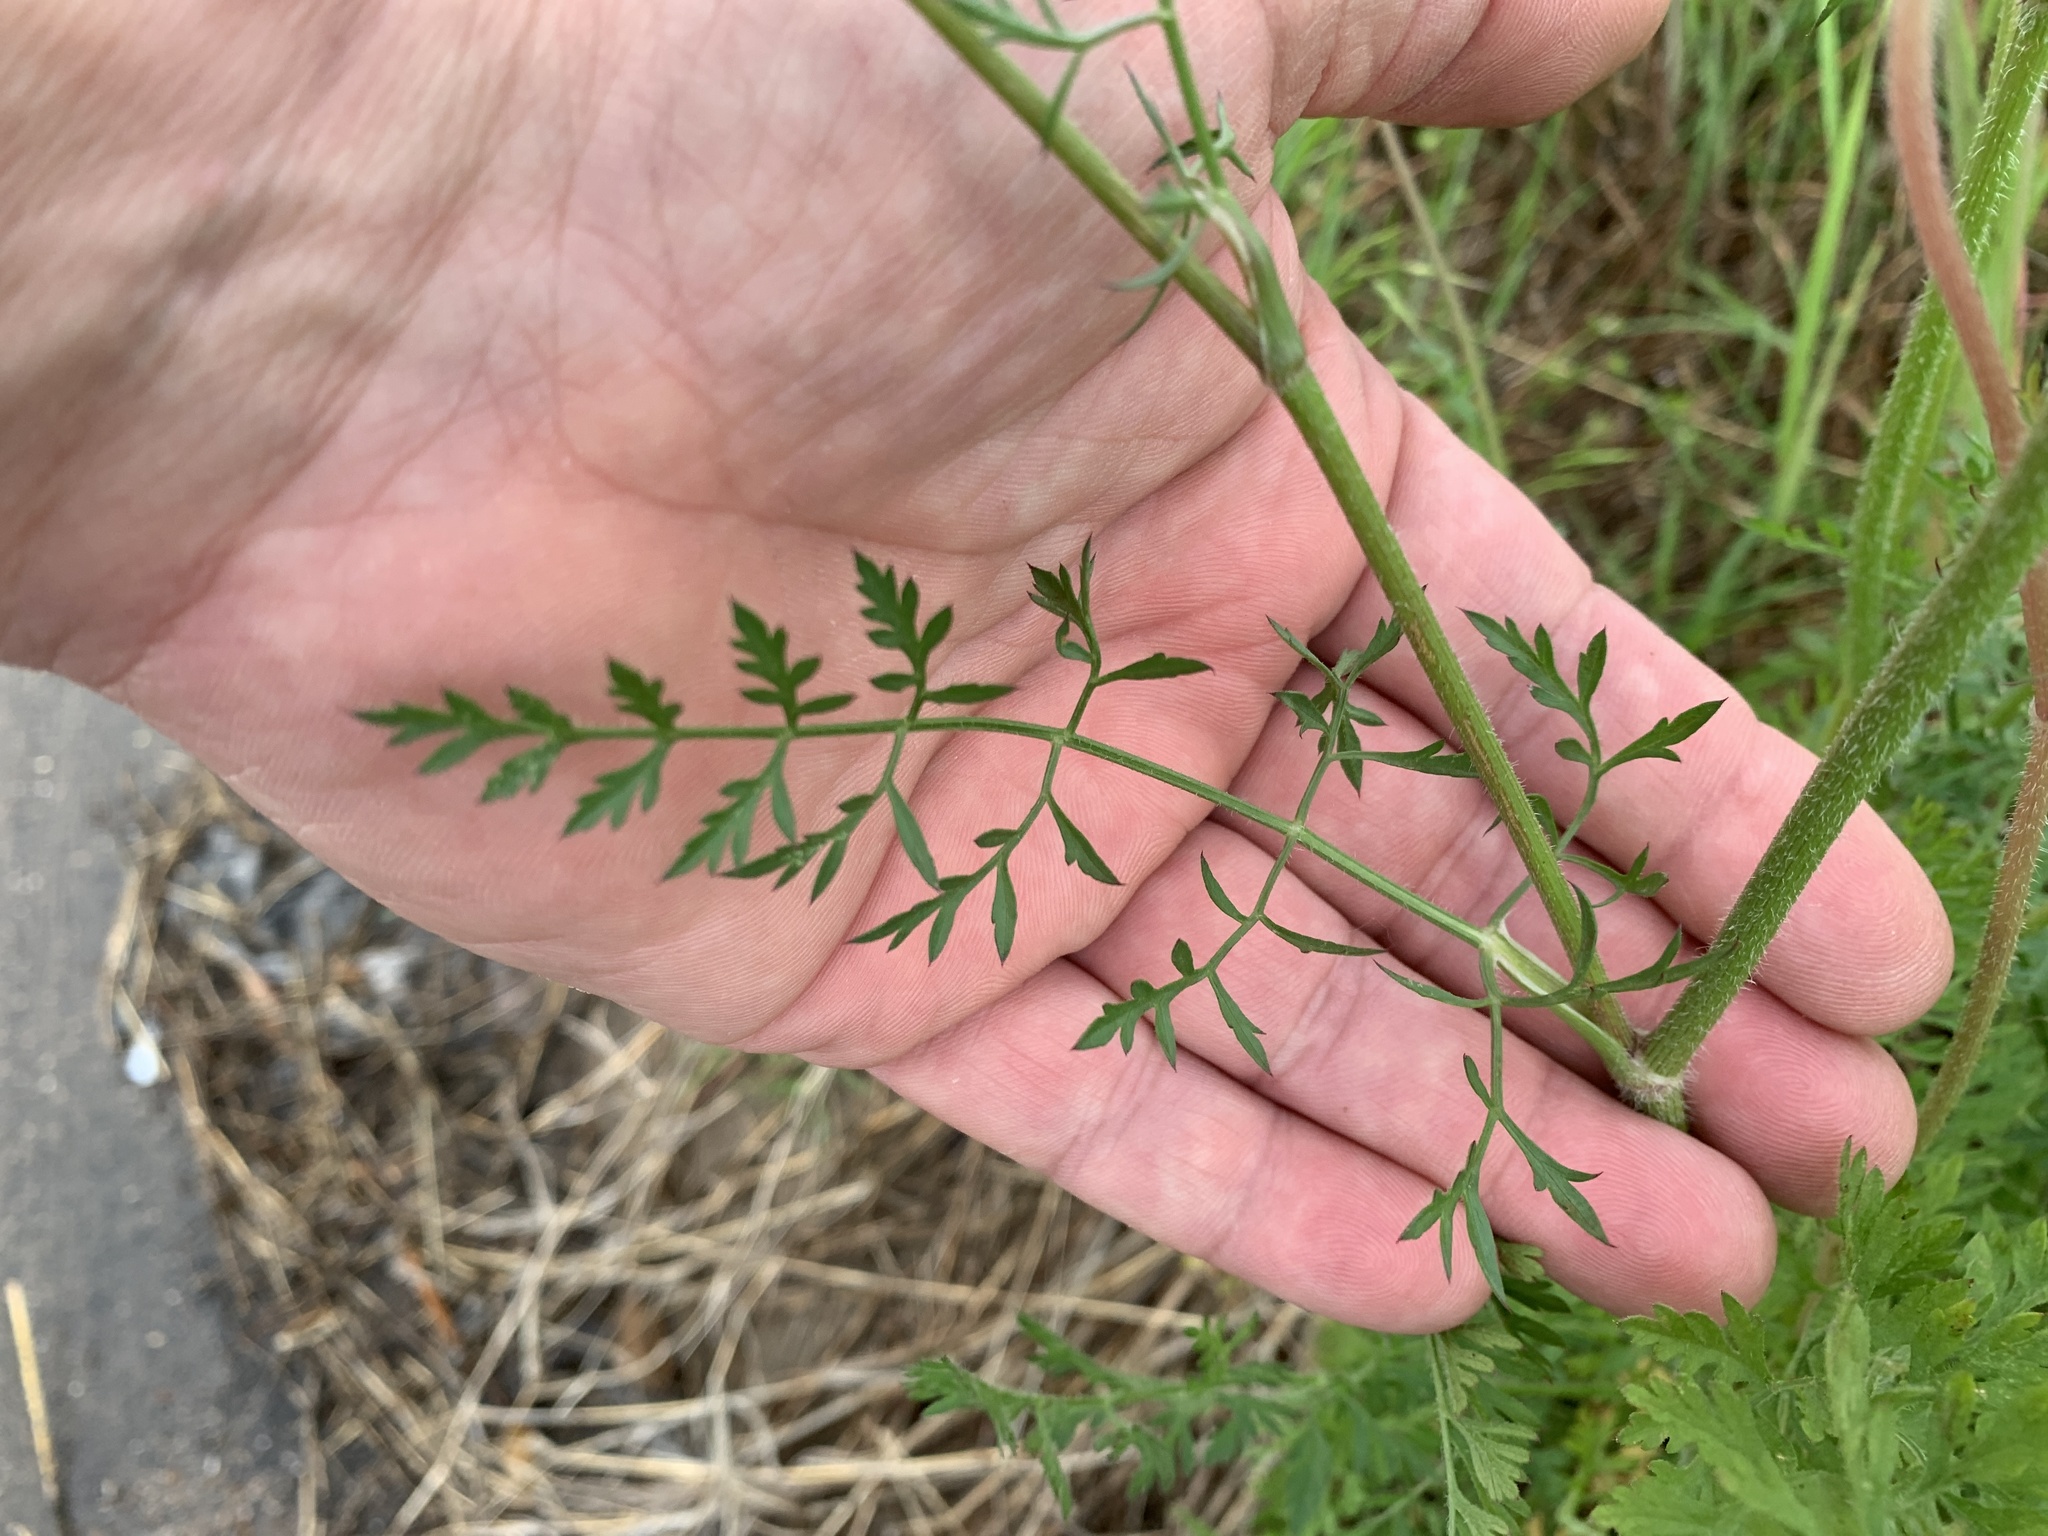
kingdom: Plantae
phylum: Tracheophyta
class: Magnoliopsida
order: Apiales
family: Apiaceae
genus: Daucus
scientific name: Daucus carota
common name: Wild carrot
